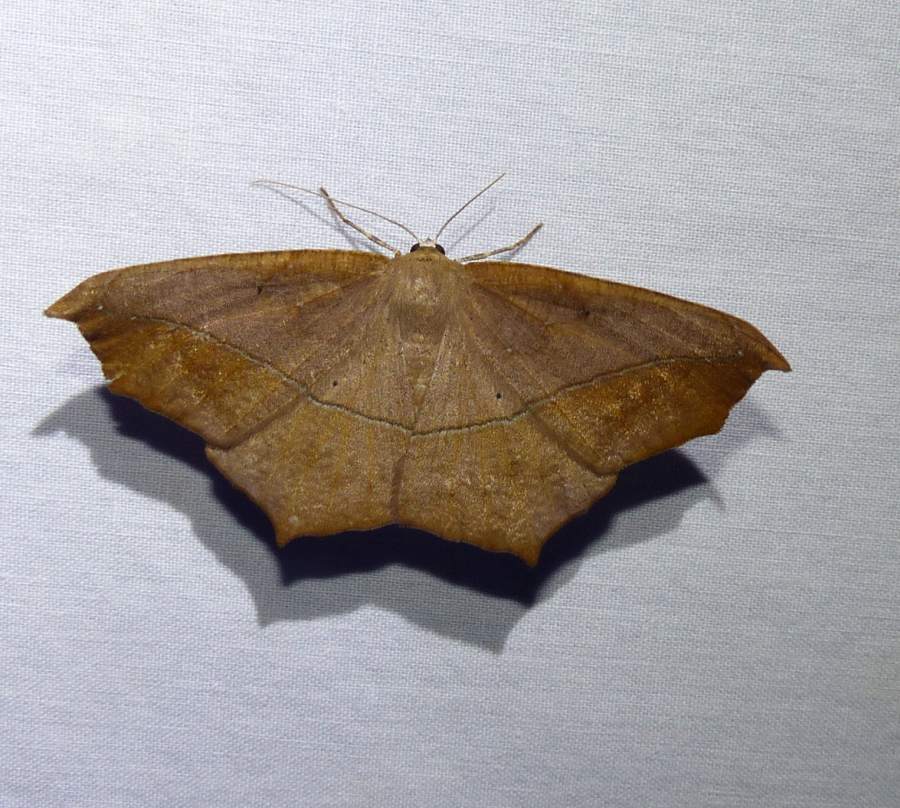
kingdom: Animalia
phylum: Arthropoda
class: Insecta
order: Lepidoptera
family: Geometridae
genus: Prochoerodes
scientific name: Prochoerodes lineola
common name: Large maple spanworm
